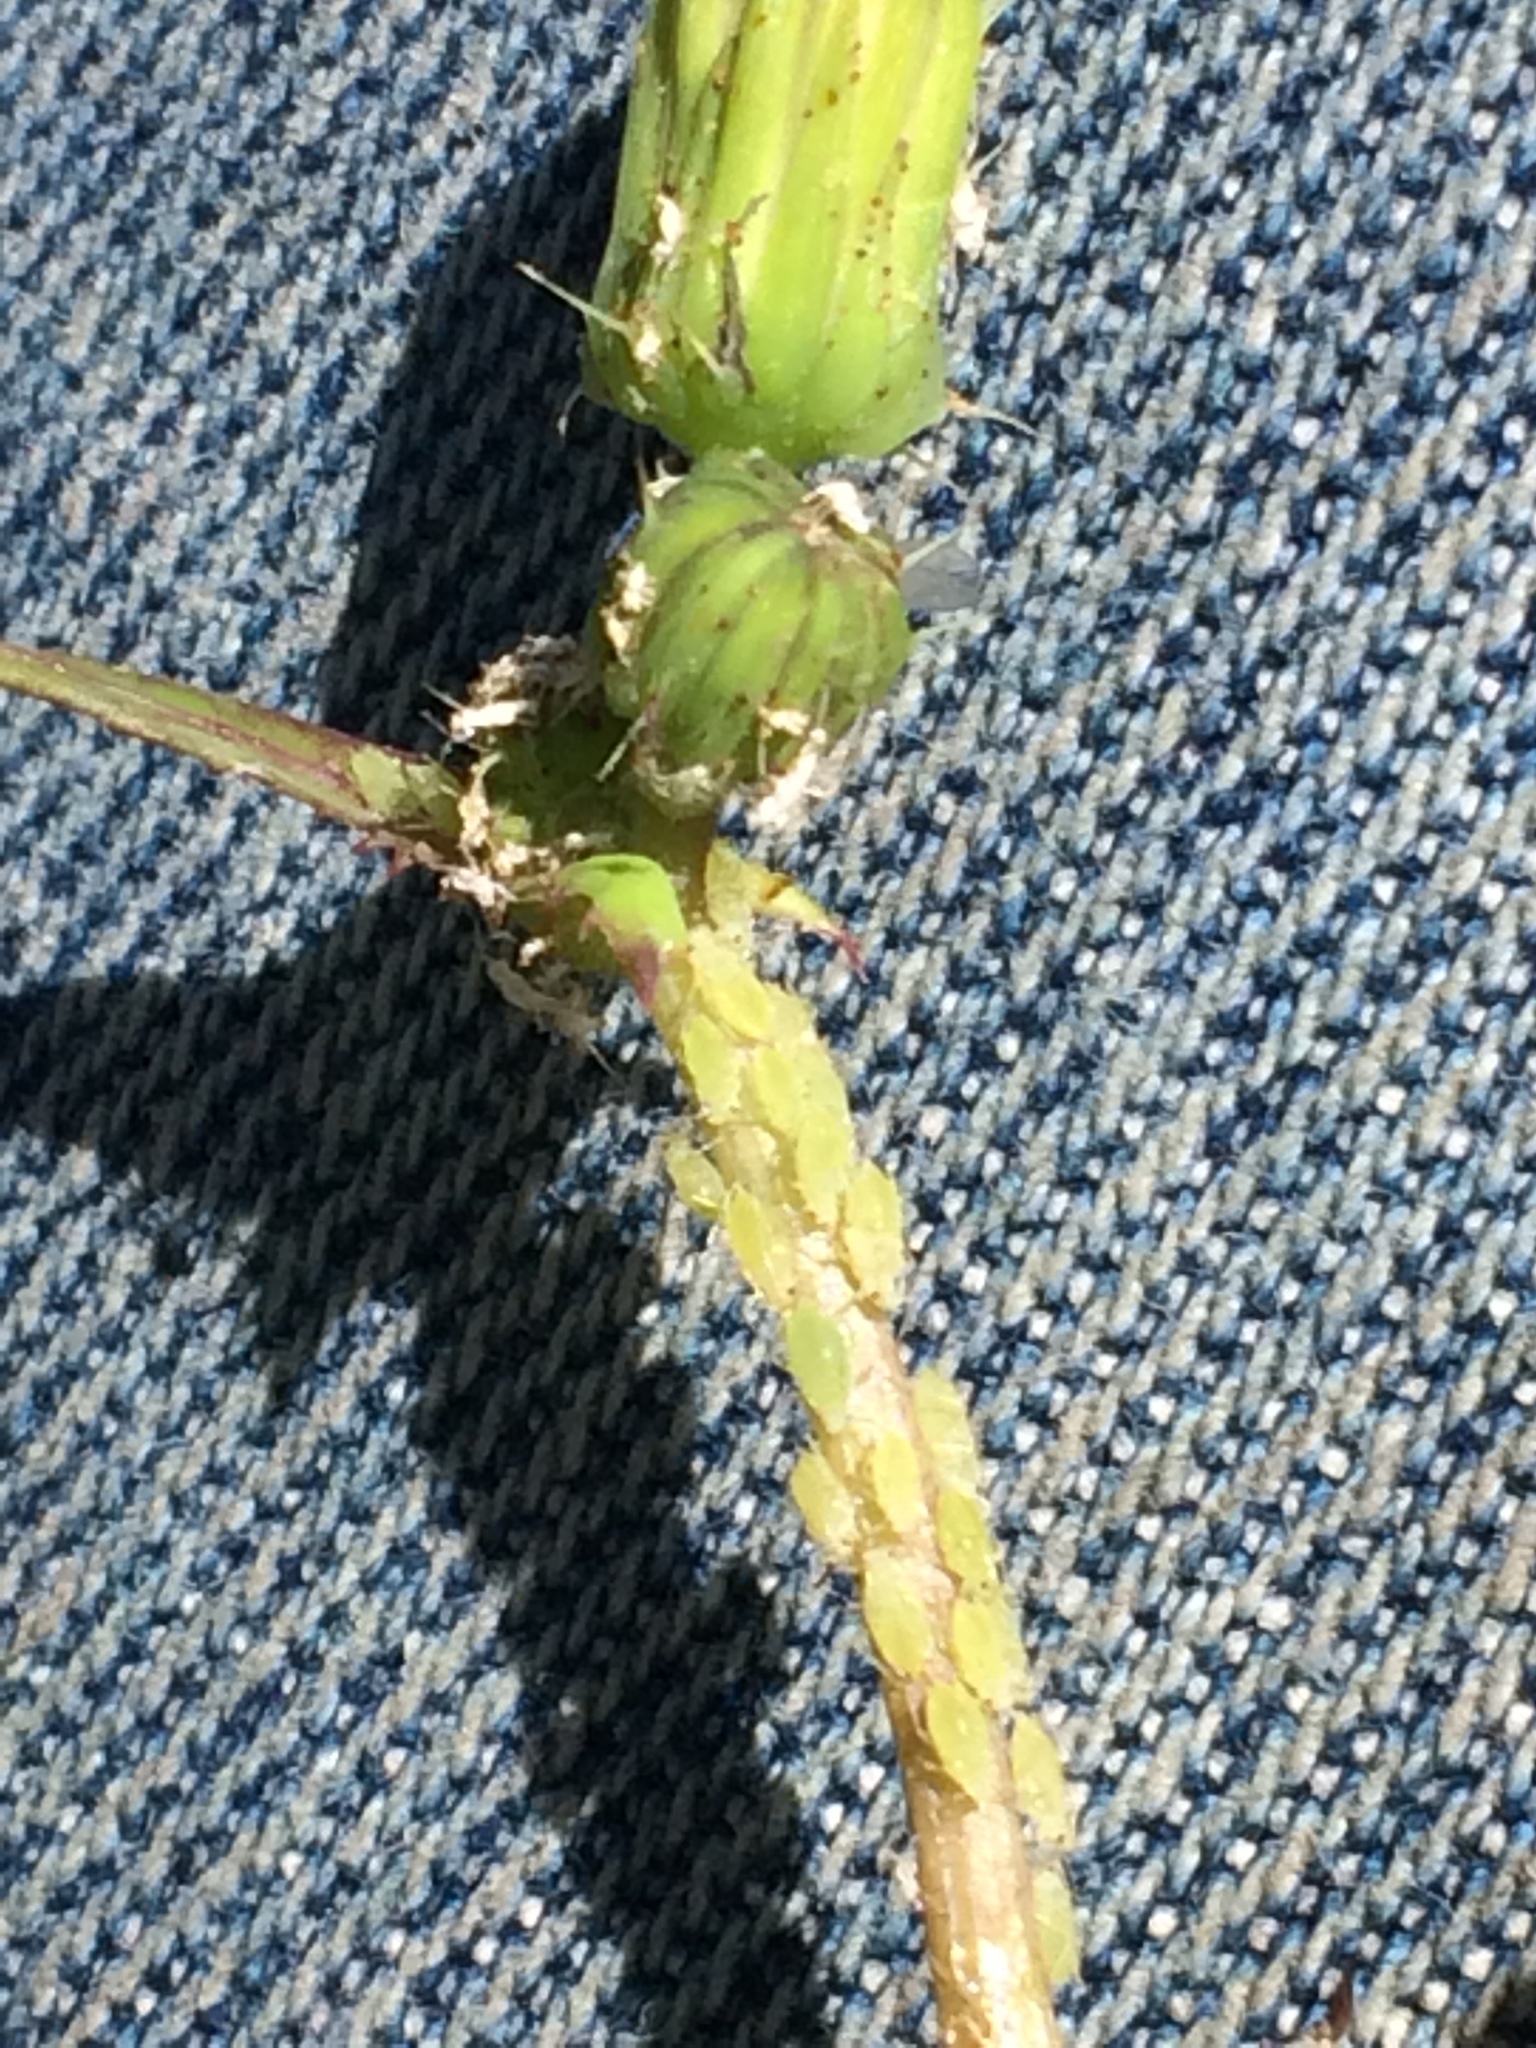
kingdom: Animalia
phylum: Arthropoda
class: Insecta
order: Hemiptera
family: Aphididae
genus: Hyperomyzus
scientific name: Hyperomyzus
